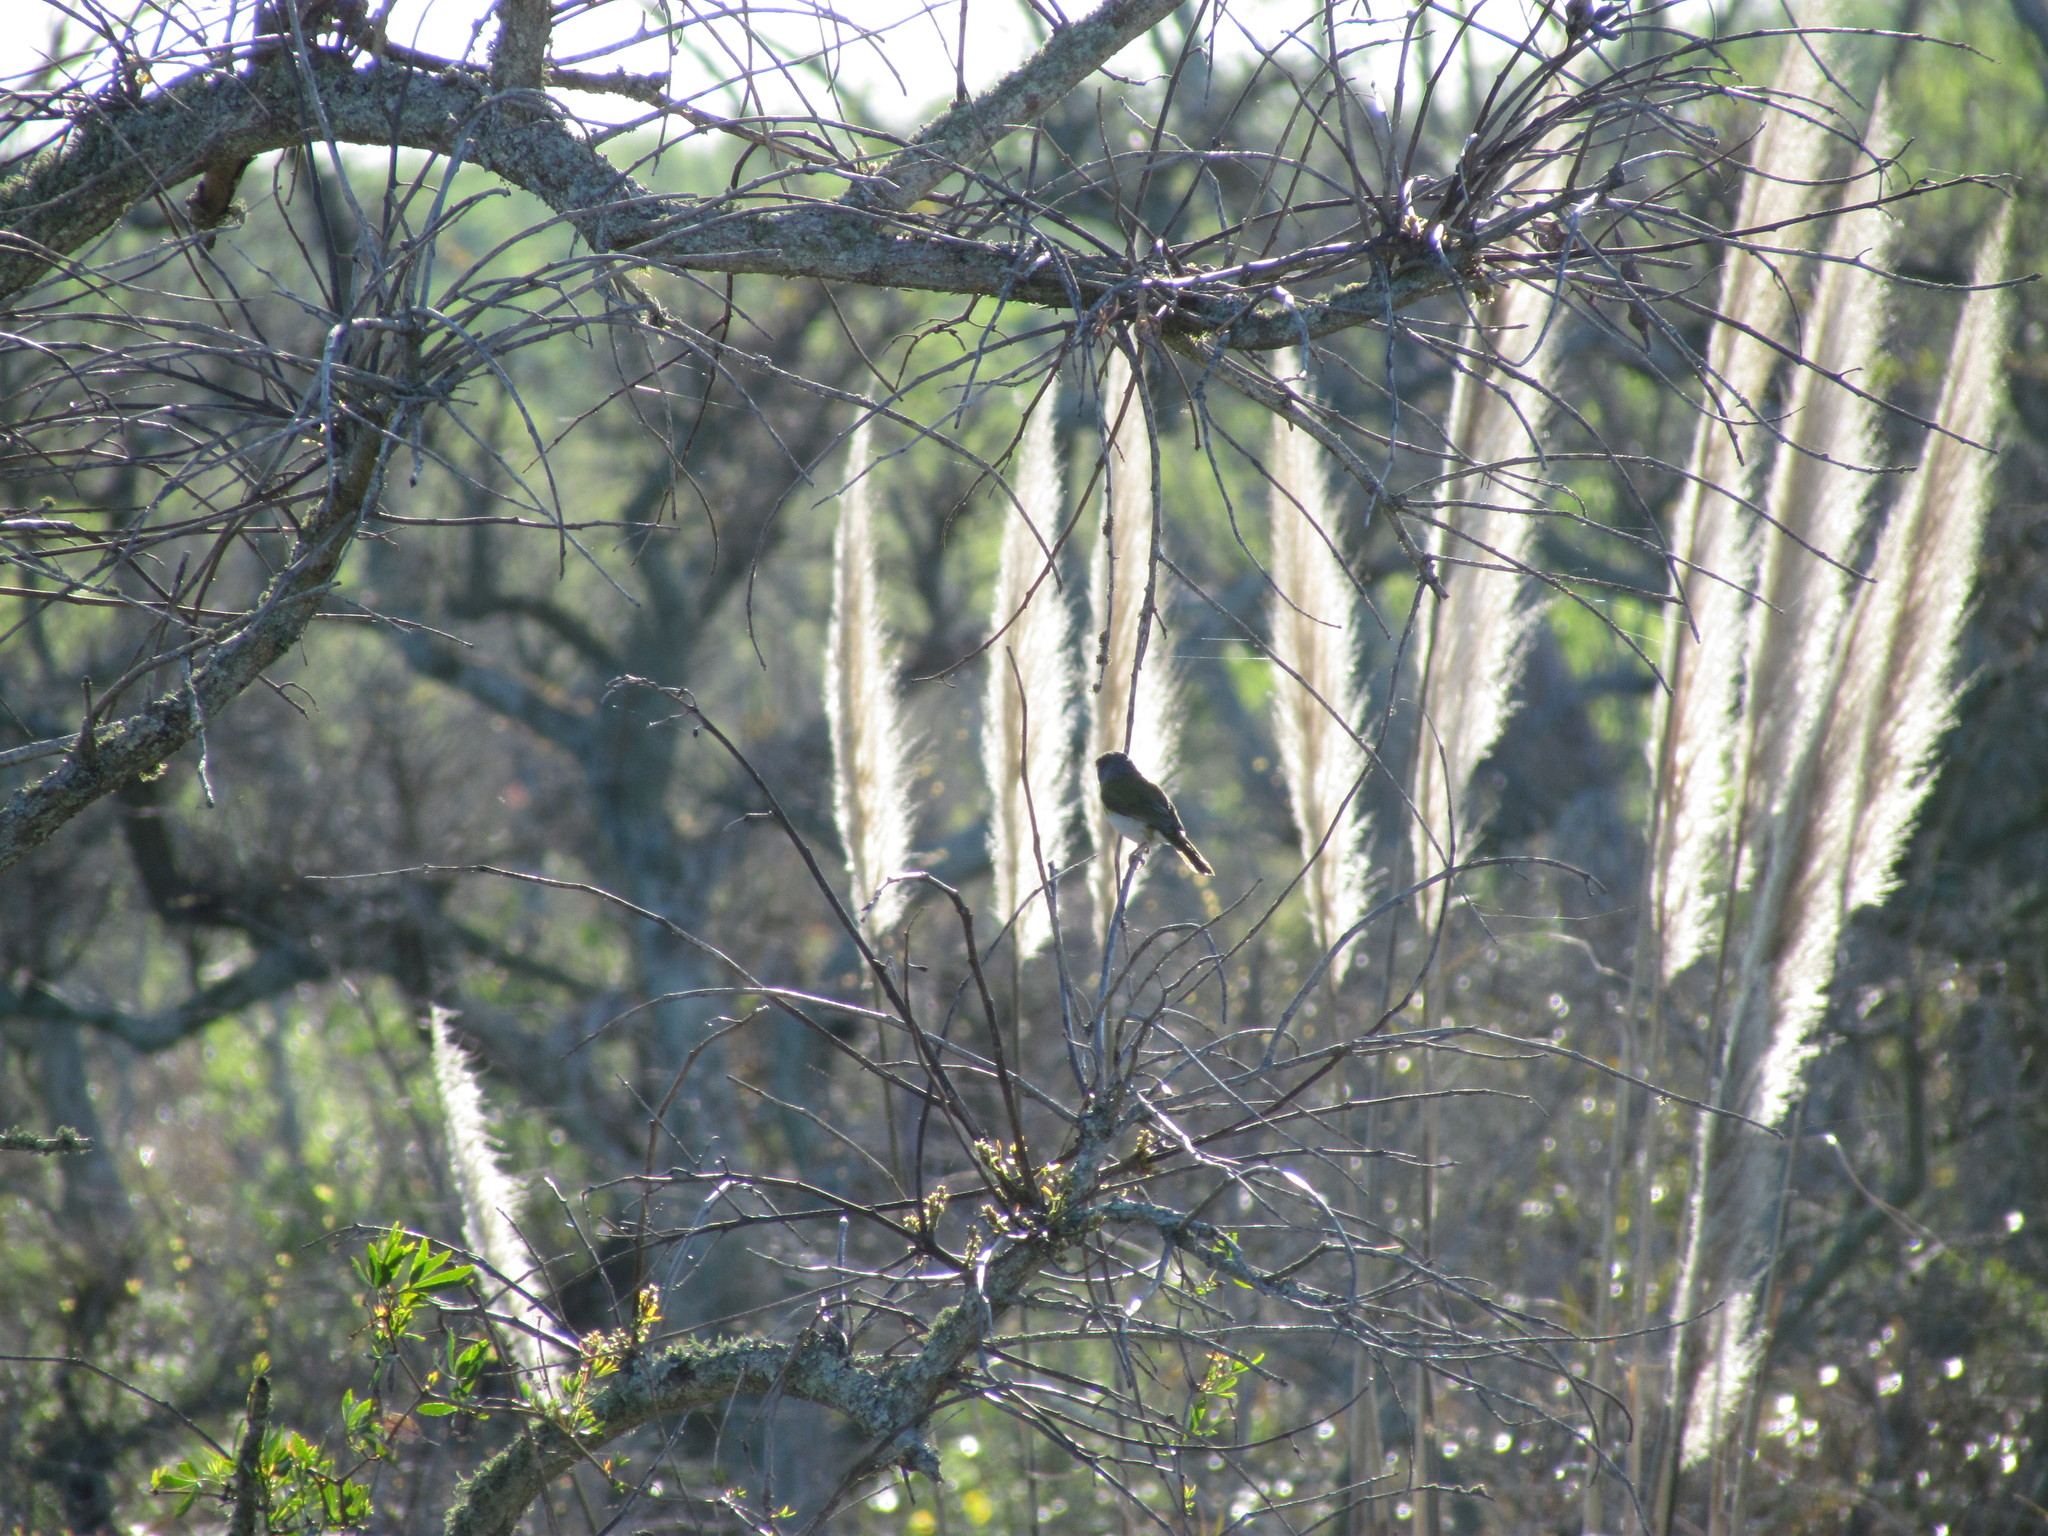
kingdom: Animalia
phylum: Chordata
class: Aves
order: Passeriformes
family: Vireonidae
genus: Cyclarhis
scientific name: Cyclarhis gujanensis
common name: Rufous-browed peppershrike
